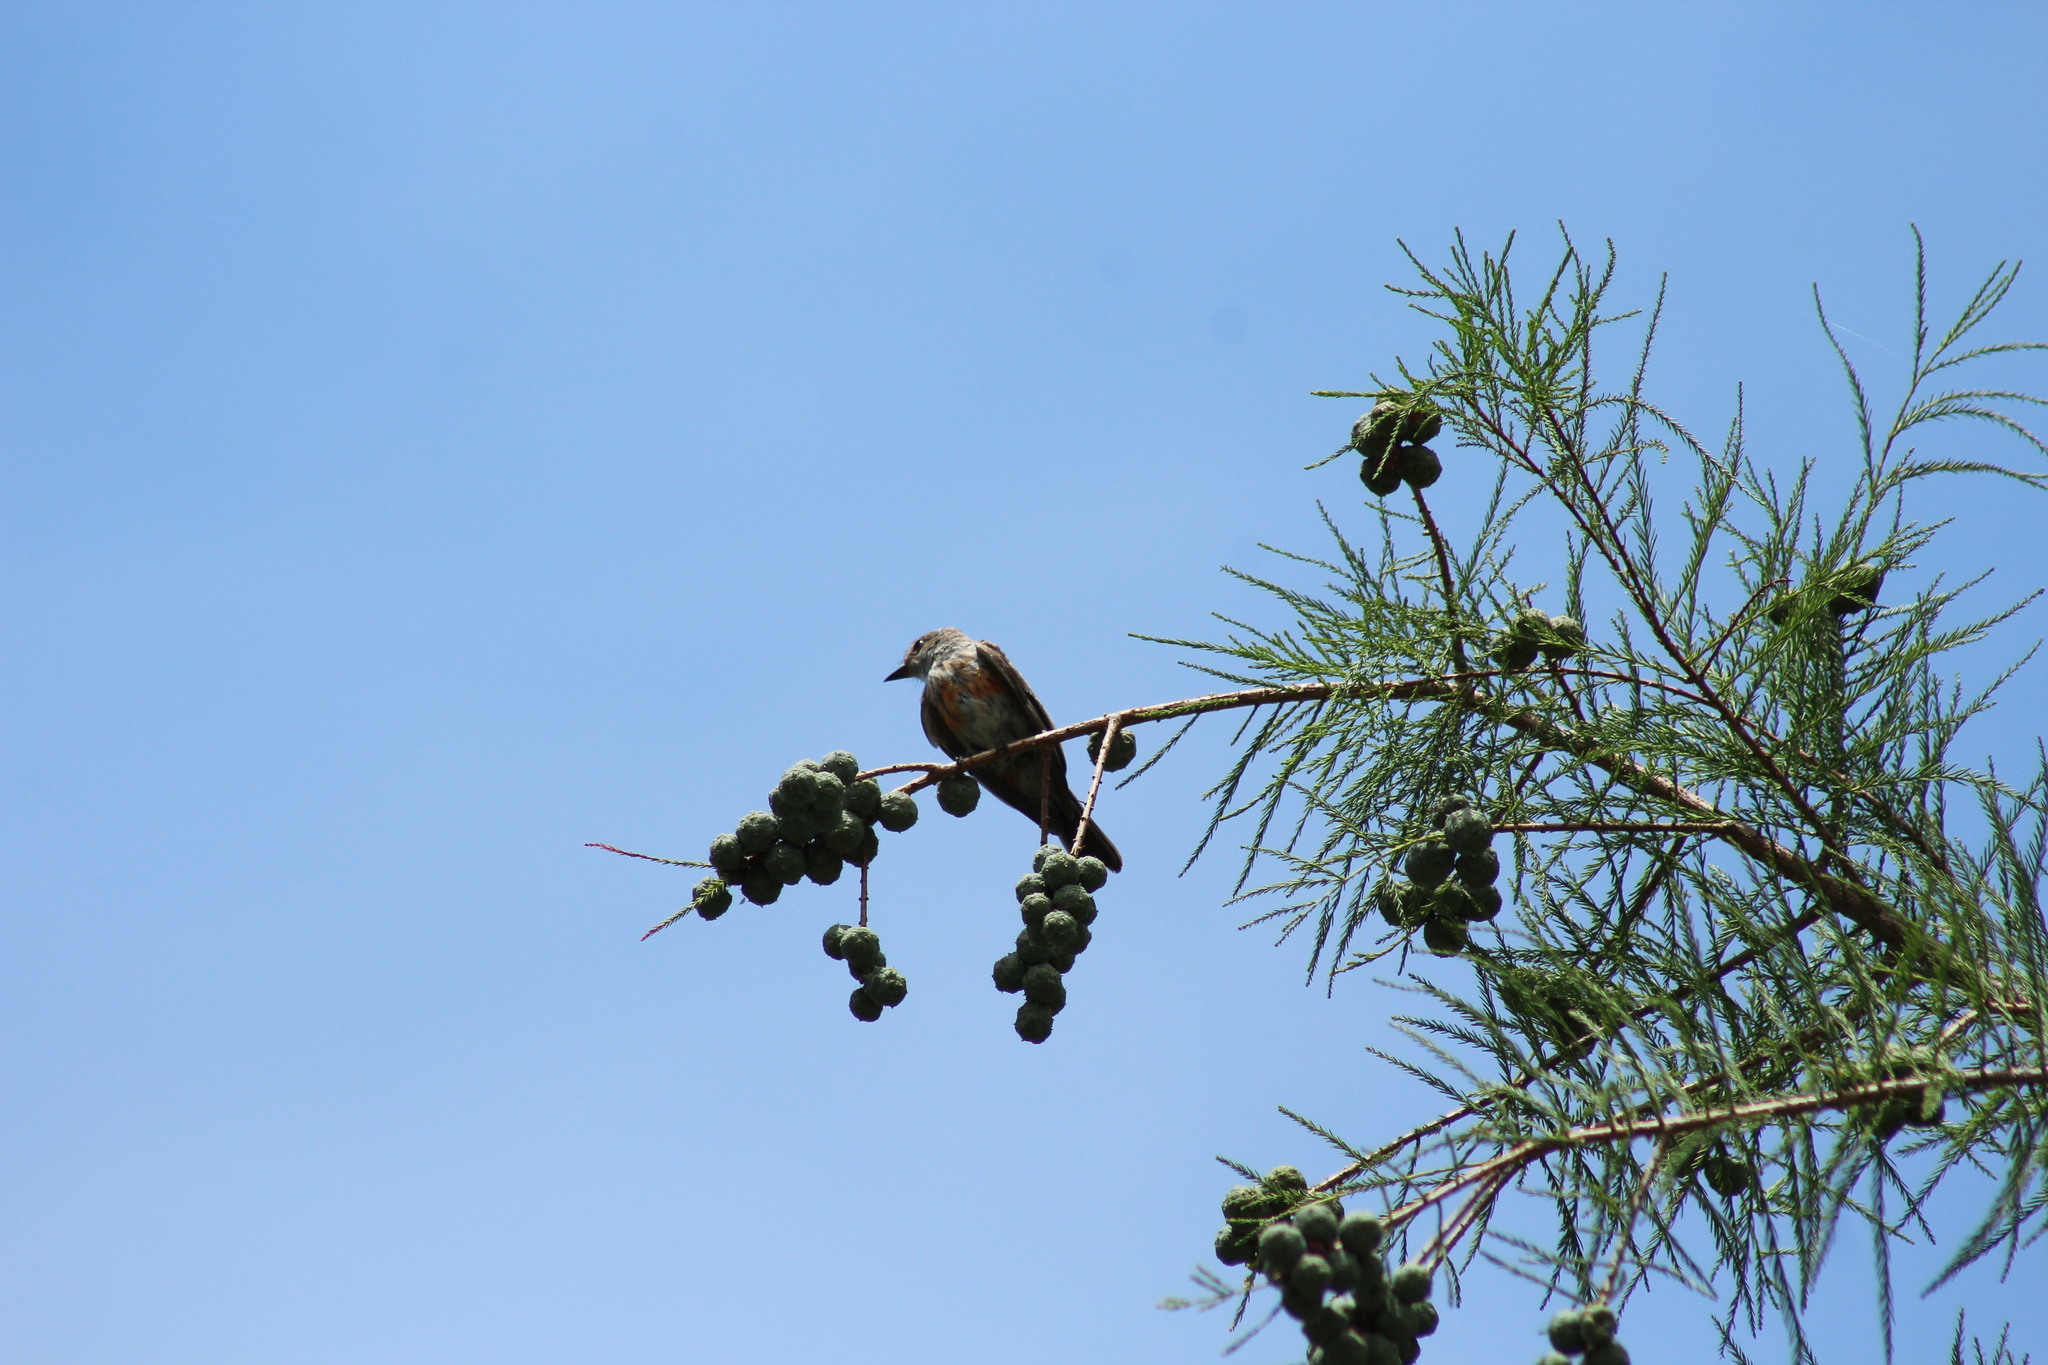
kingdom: Animalia
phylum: Chordata
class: Aves
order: Passeriformes
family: Tyrannidae
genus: Pyrocephalus
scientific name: Pyrocephalus rubinus
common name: Vermilion flycatcher
